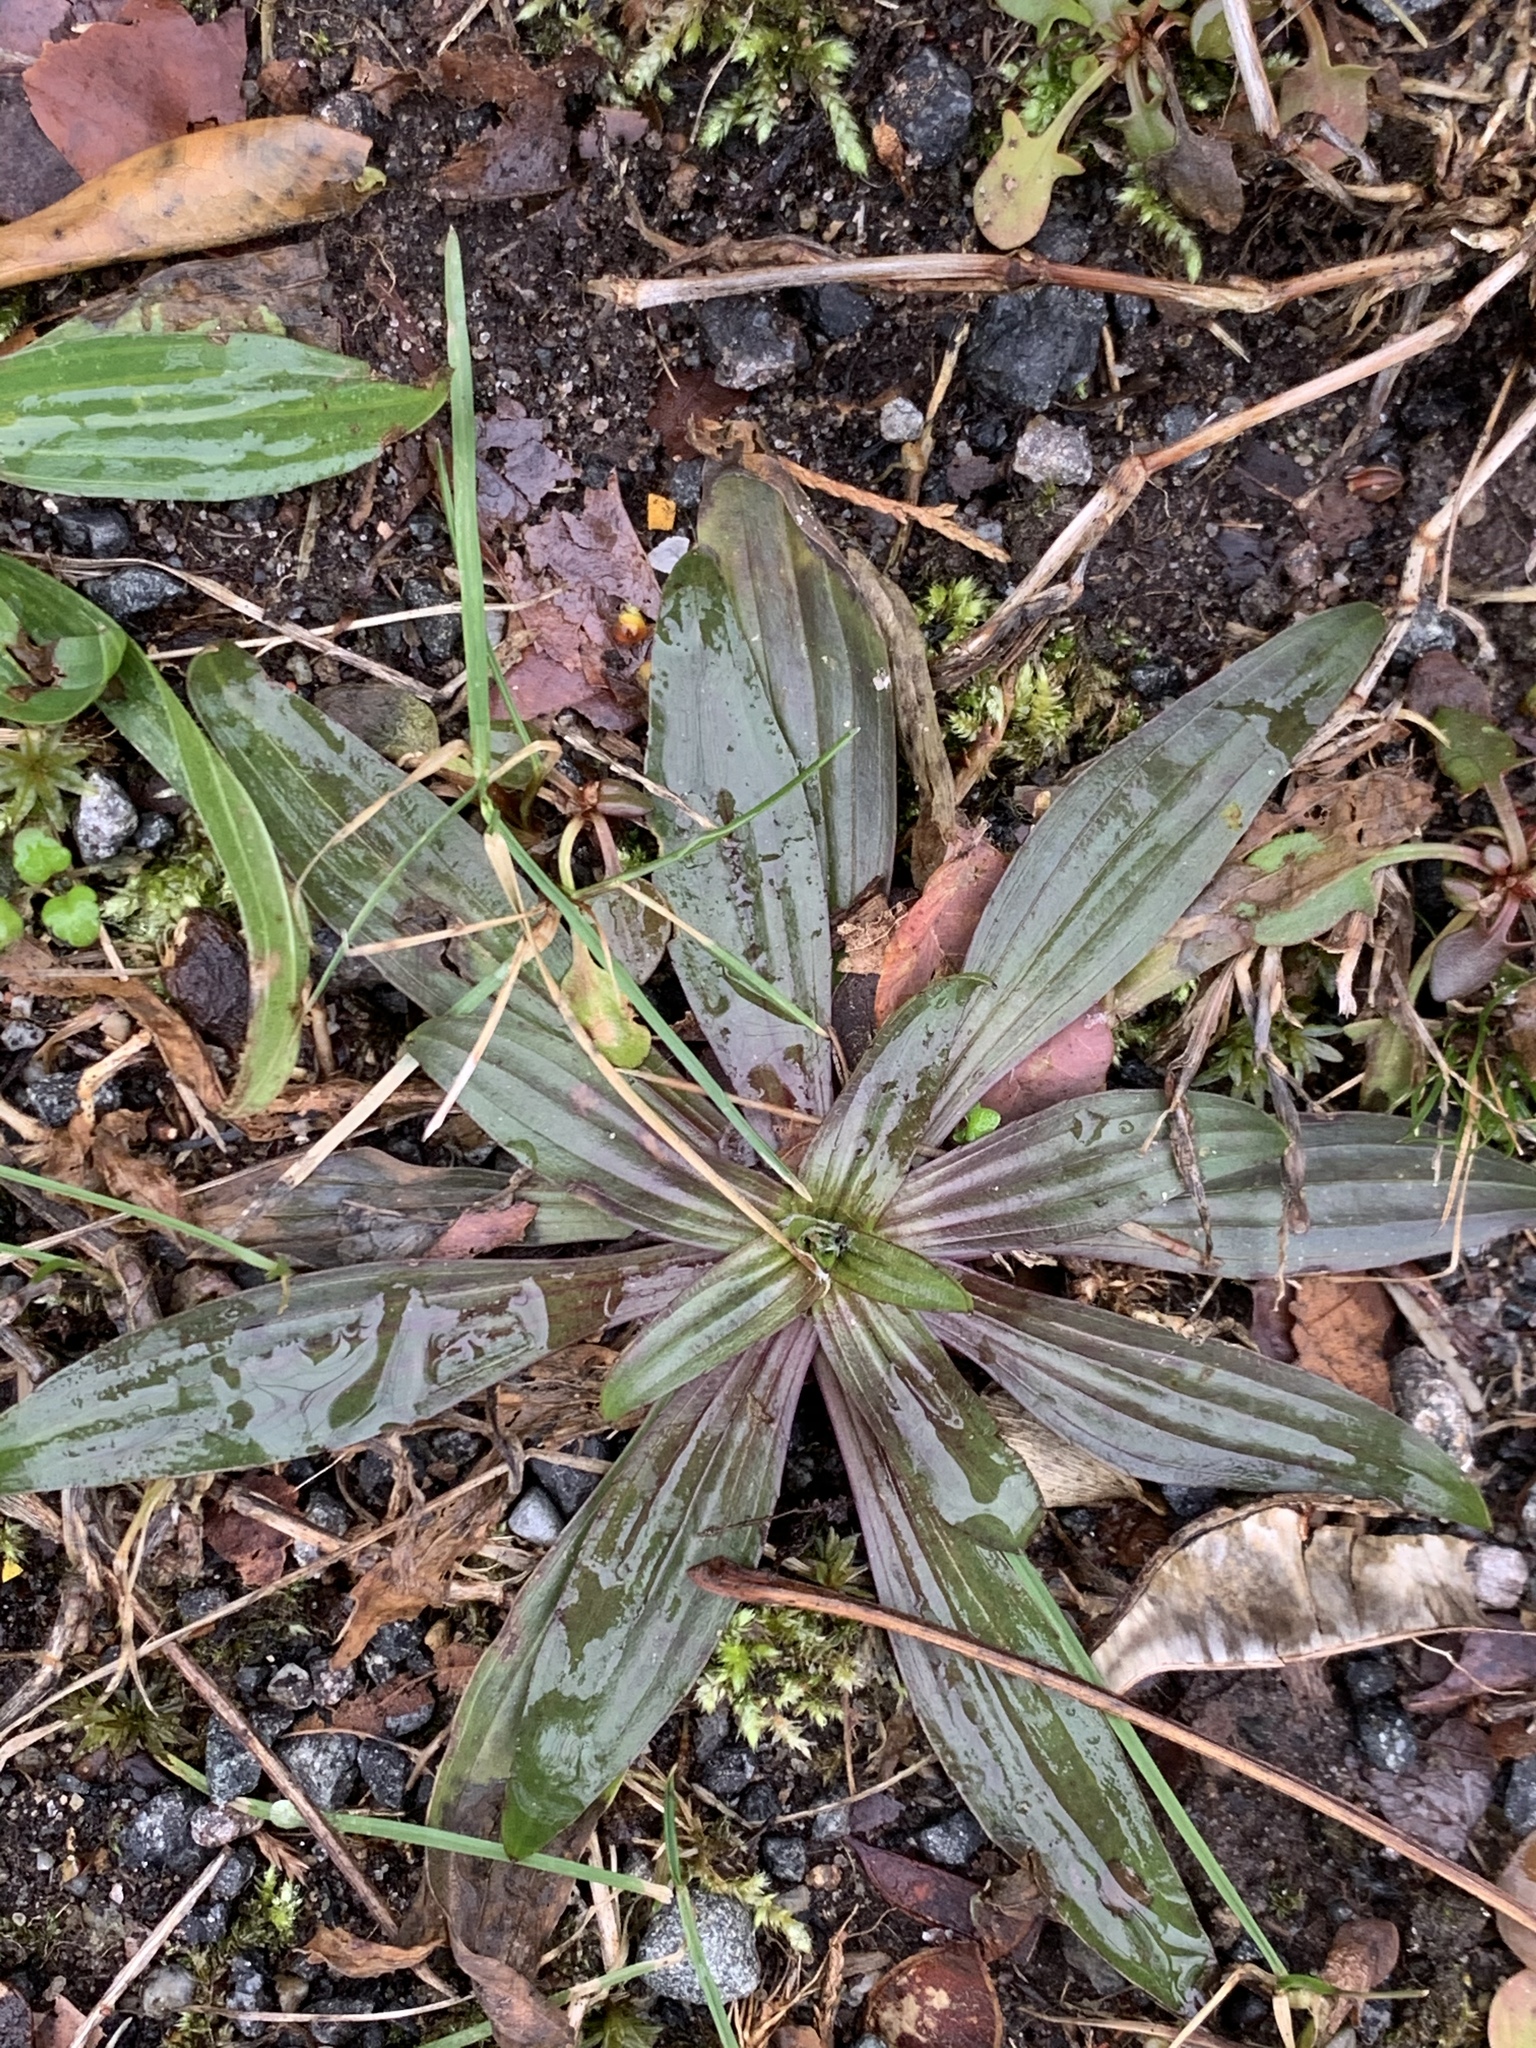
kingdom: Plantae
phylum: Tracheophyta
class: Magnoliopsida
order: Lamiales
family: Plantaginaceae
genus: Plantago
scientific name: Plantago lanceolata
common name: Ribwort plantain
